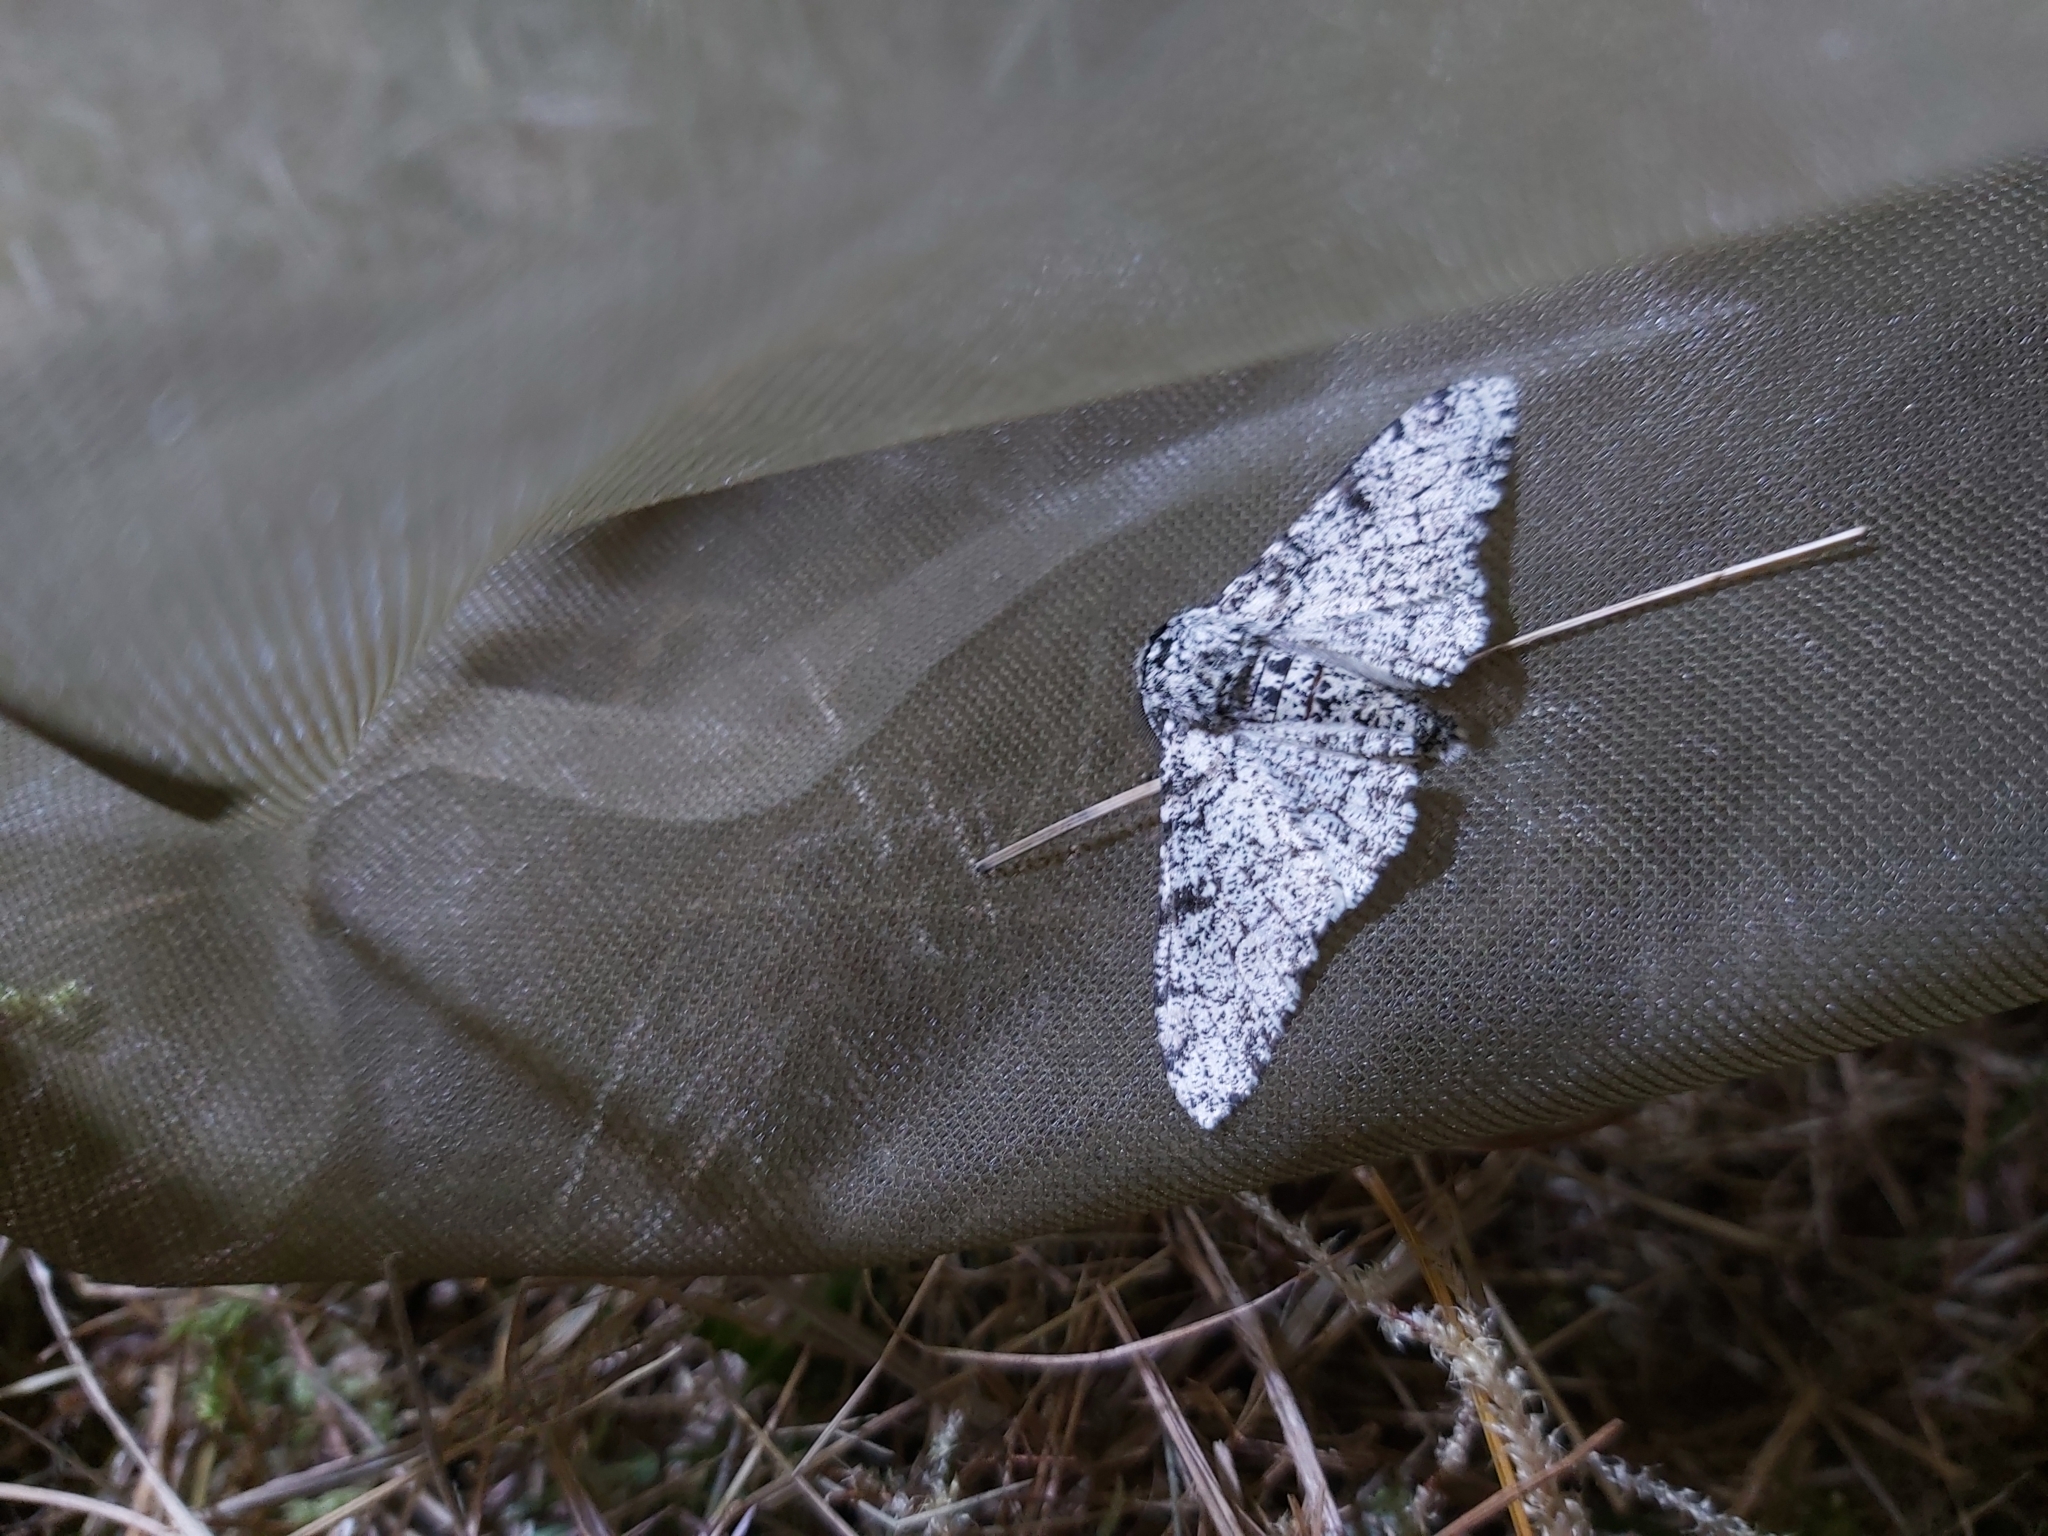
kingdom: Animalia
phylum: Arthropoda
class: Insecta
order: Lepidoptera
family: Geometridae
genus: Biston
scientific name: Biston betularia
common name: Peppered moth
